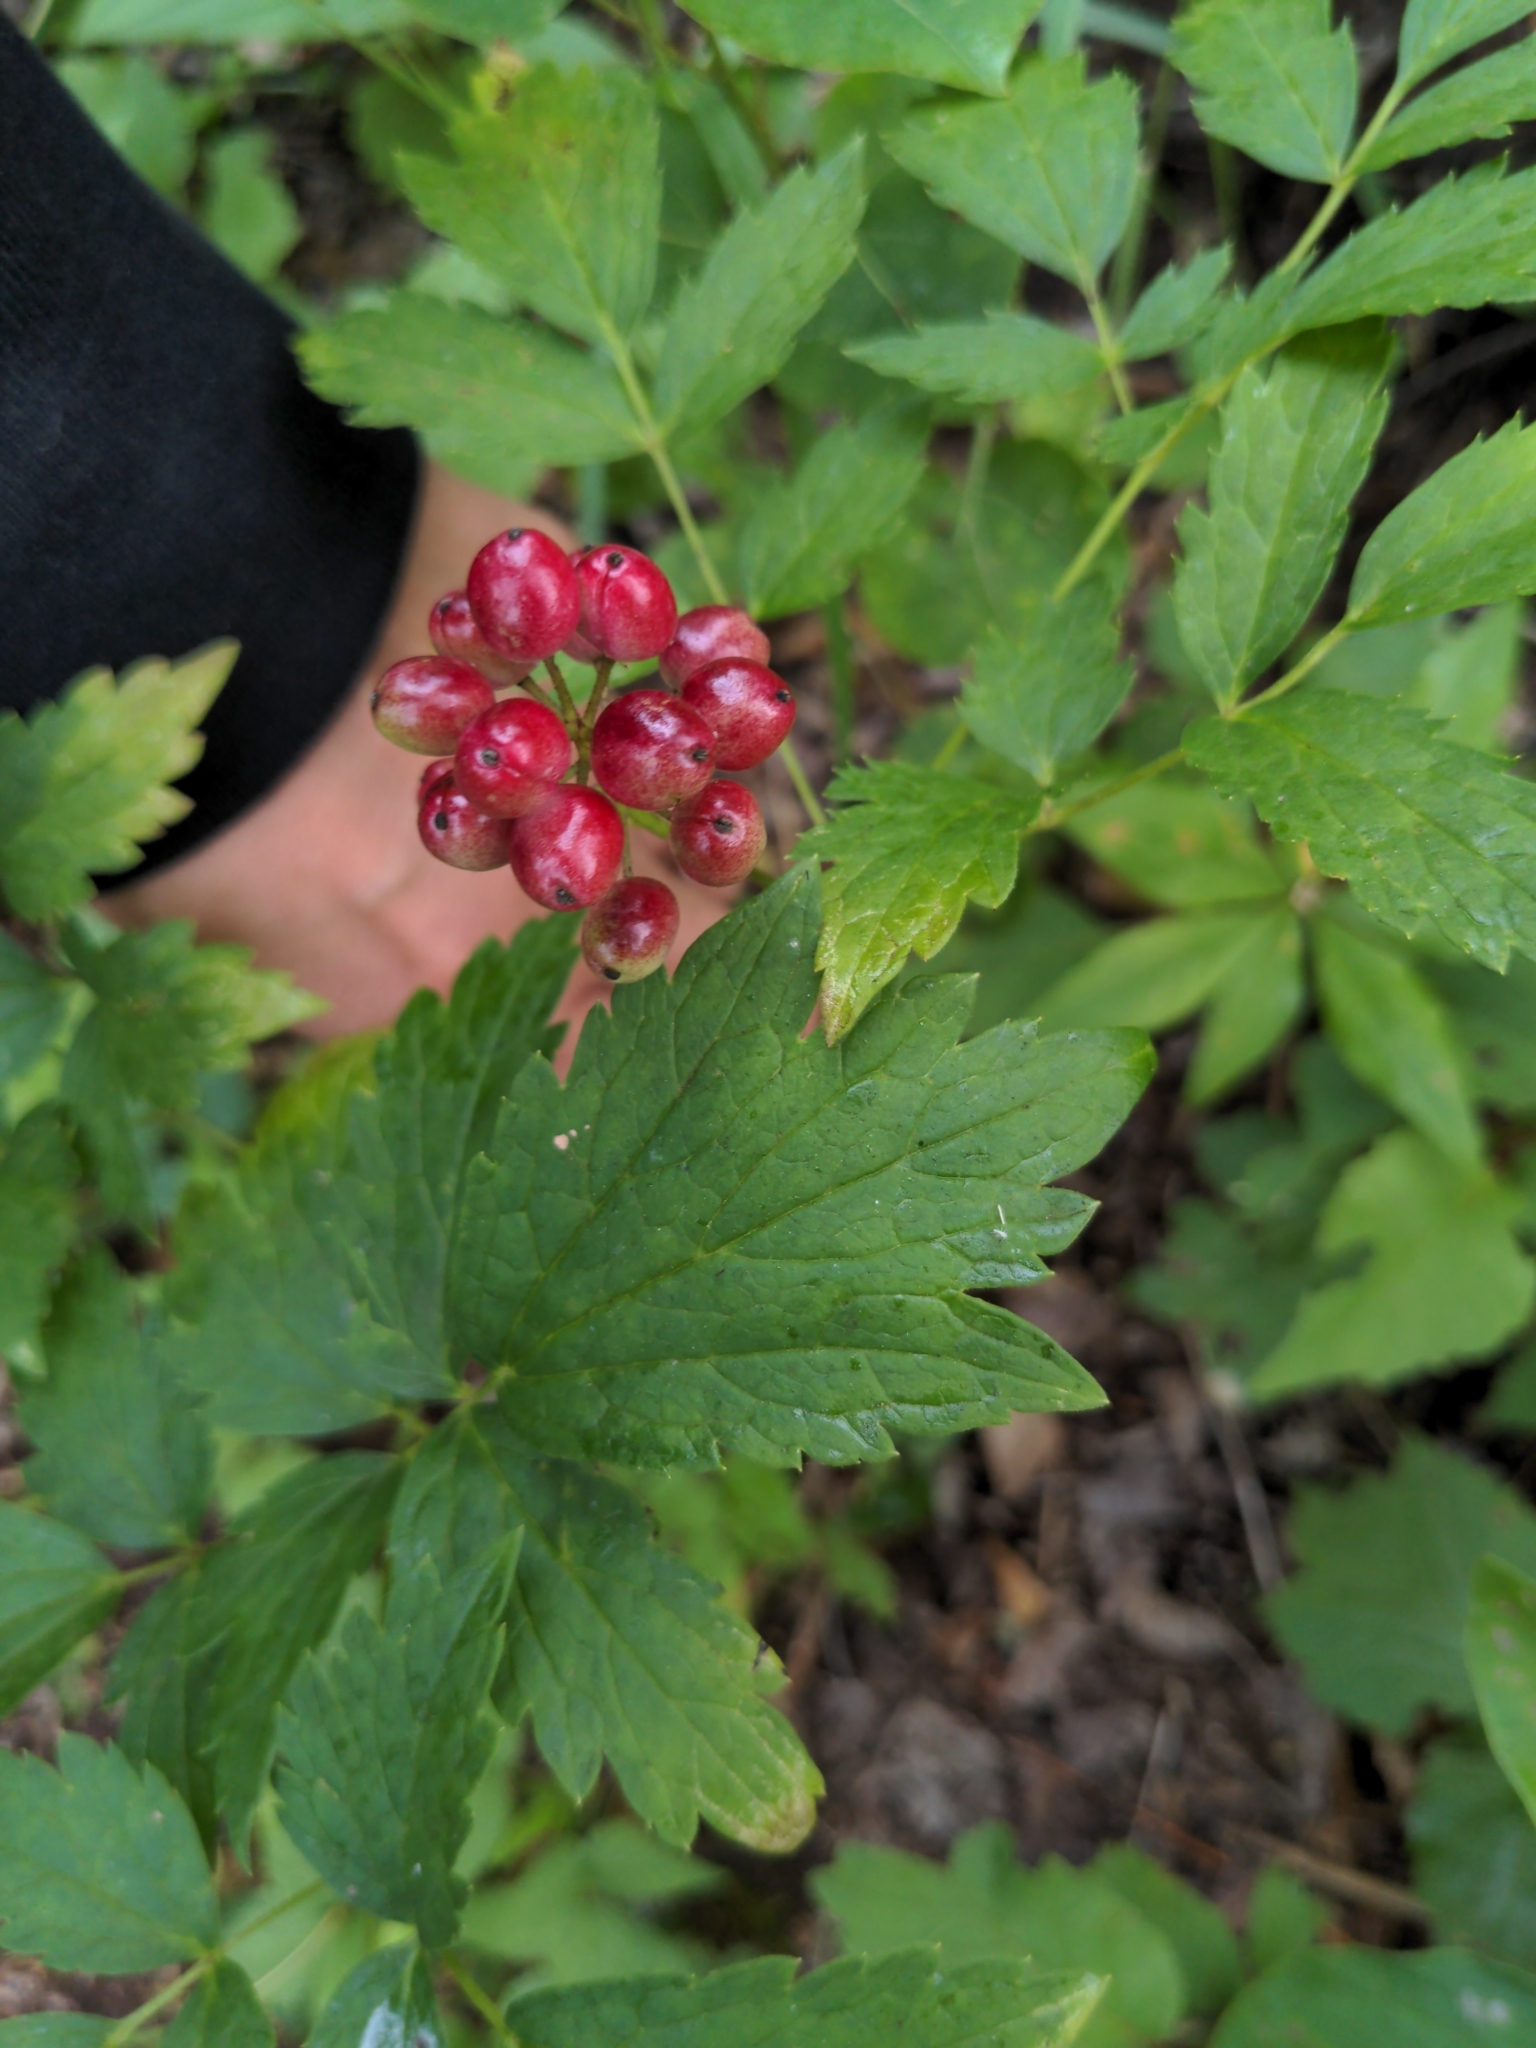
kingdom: Plantae
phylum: Tracheophyta
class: Magnoliopsida
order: Ranunculales
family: Ranunculaceae
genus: Actaea
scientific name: Actaea rubra
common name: Red baneberry
